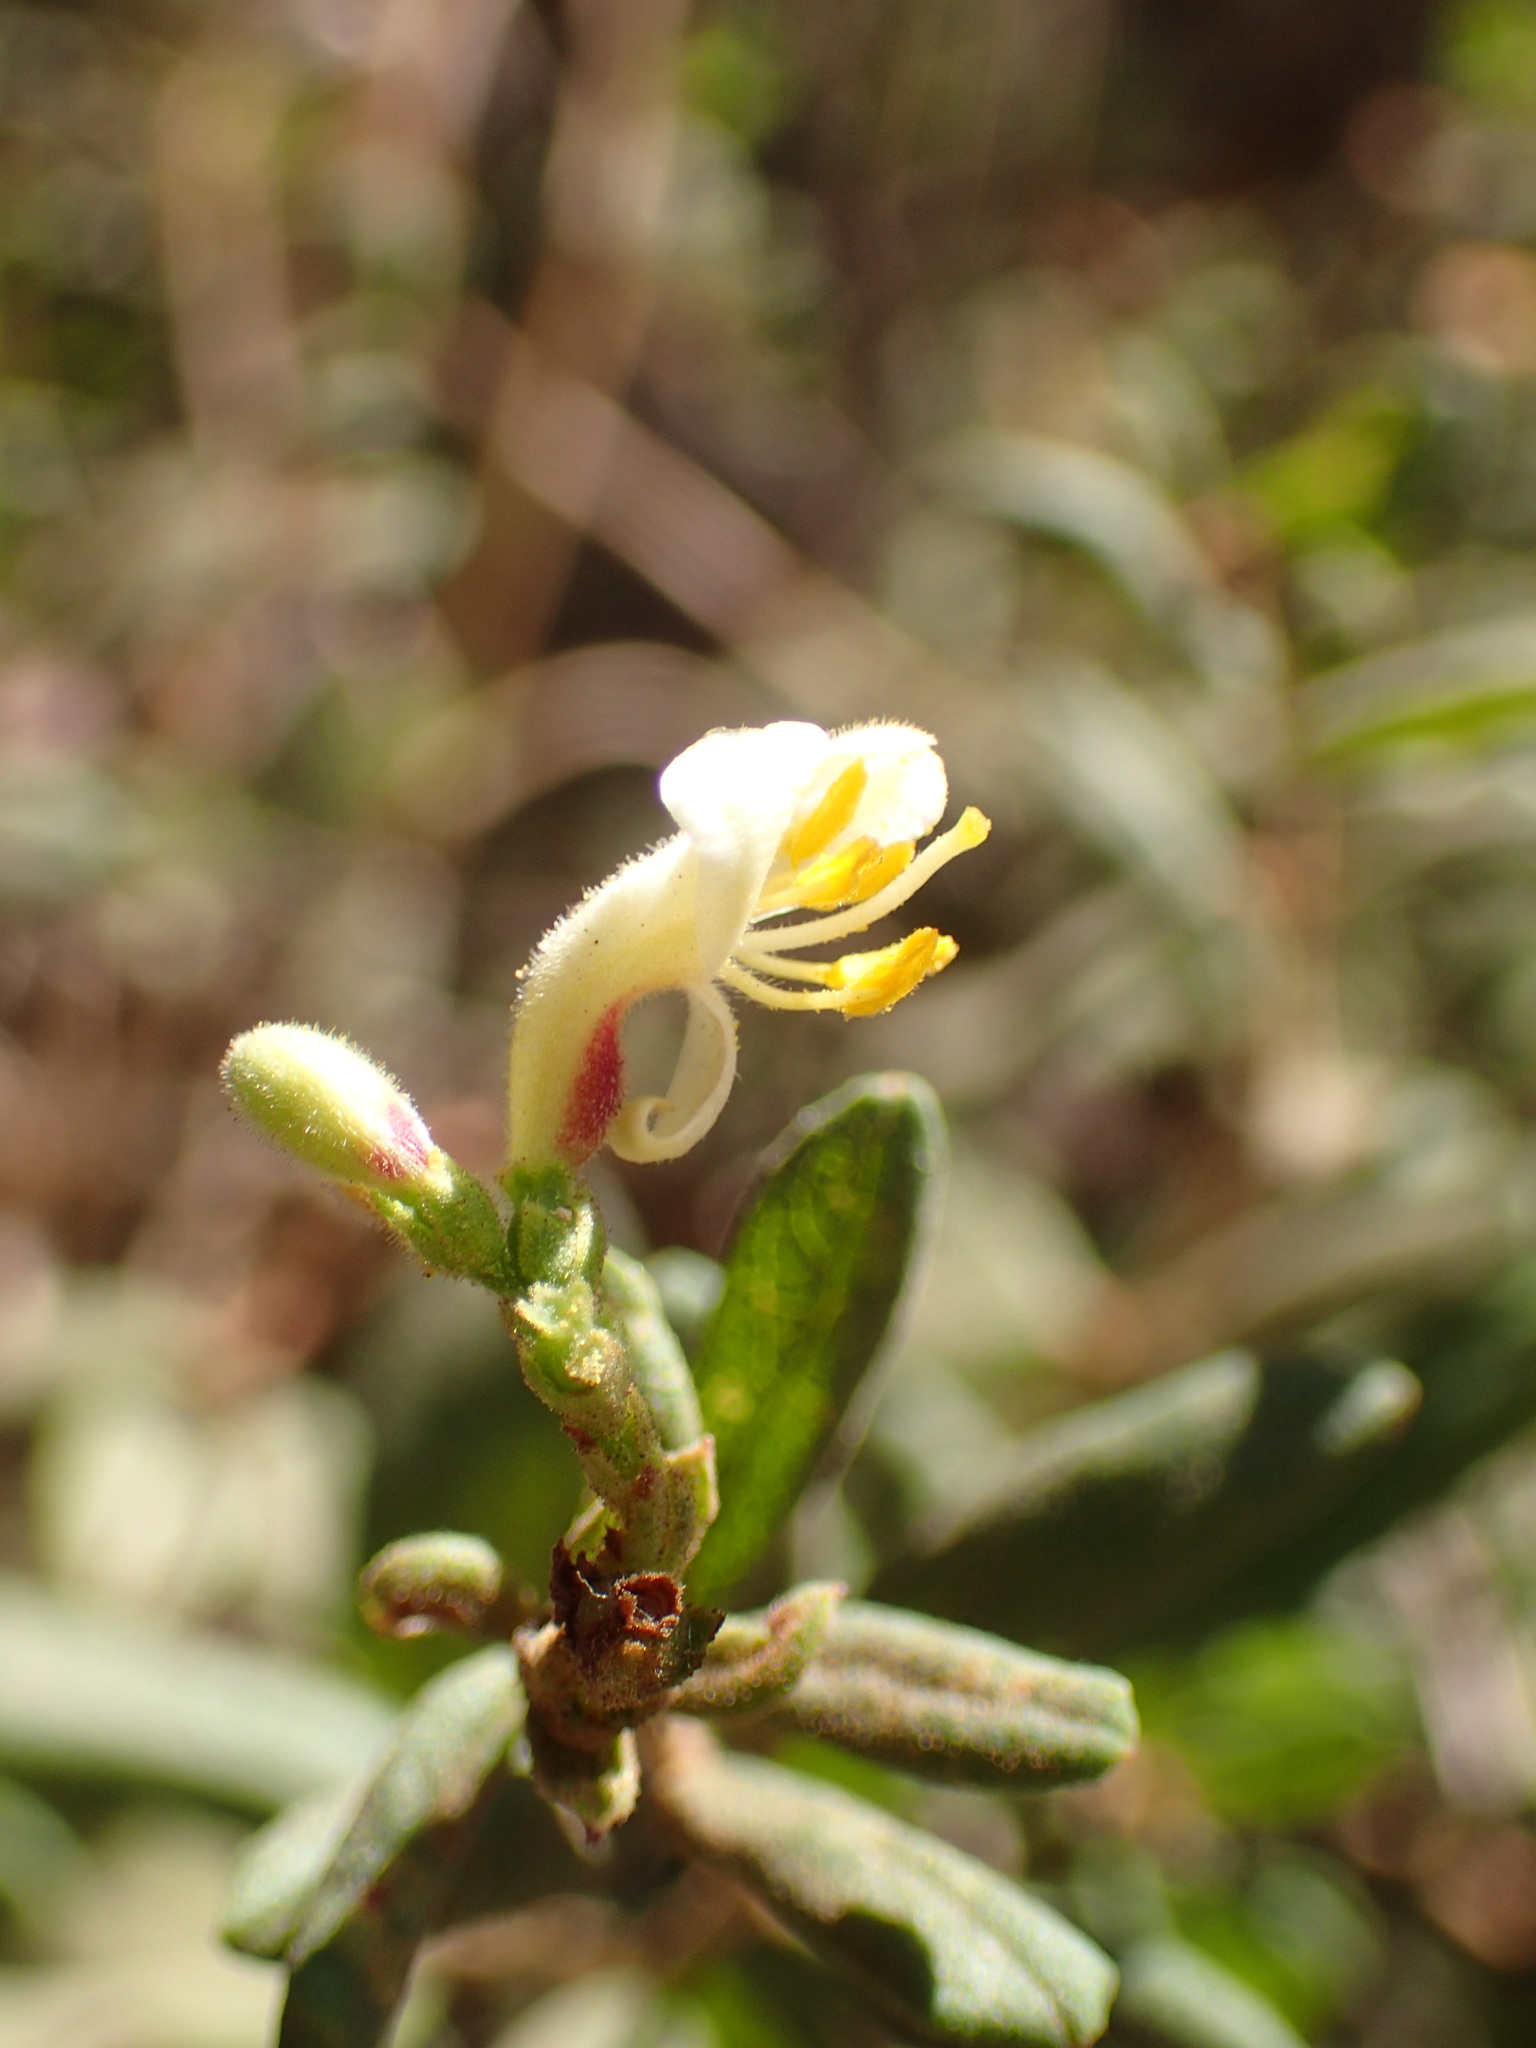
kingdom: Plantae
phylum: Tracheophyta
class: Magnoliopsida
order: Dipsacales
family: Caprifoliaceae
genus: Lonicera
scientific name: Lonicera subspicata
